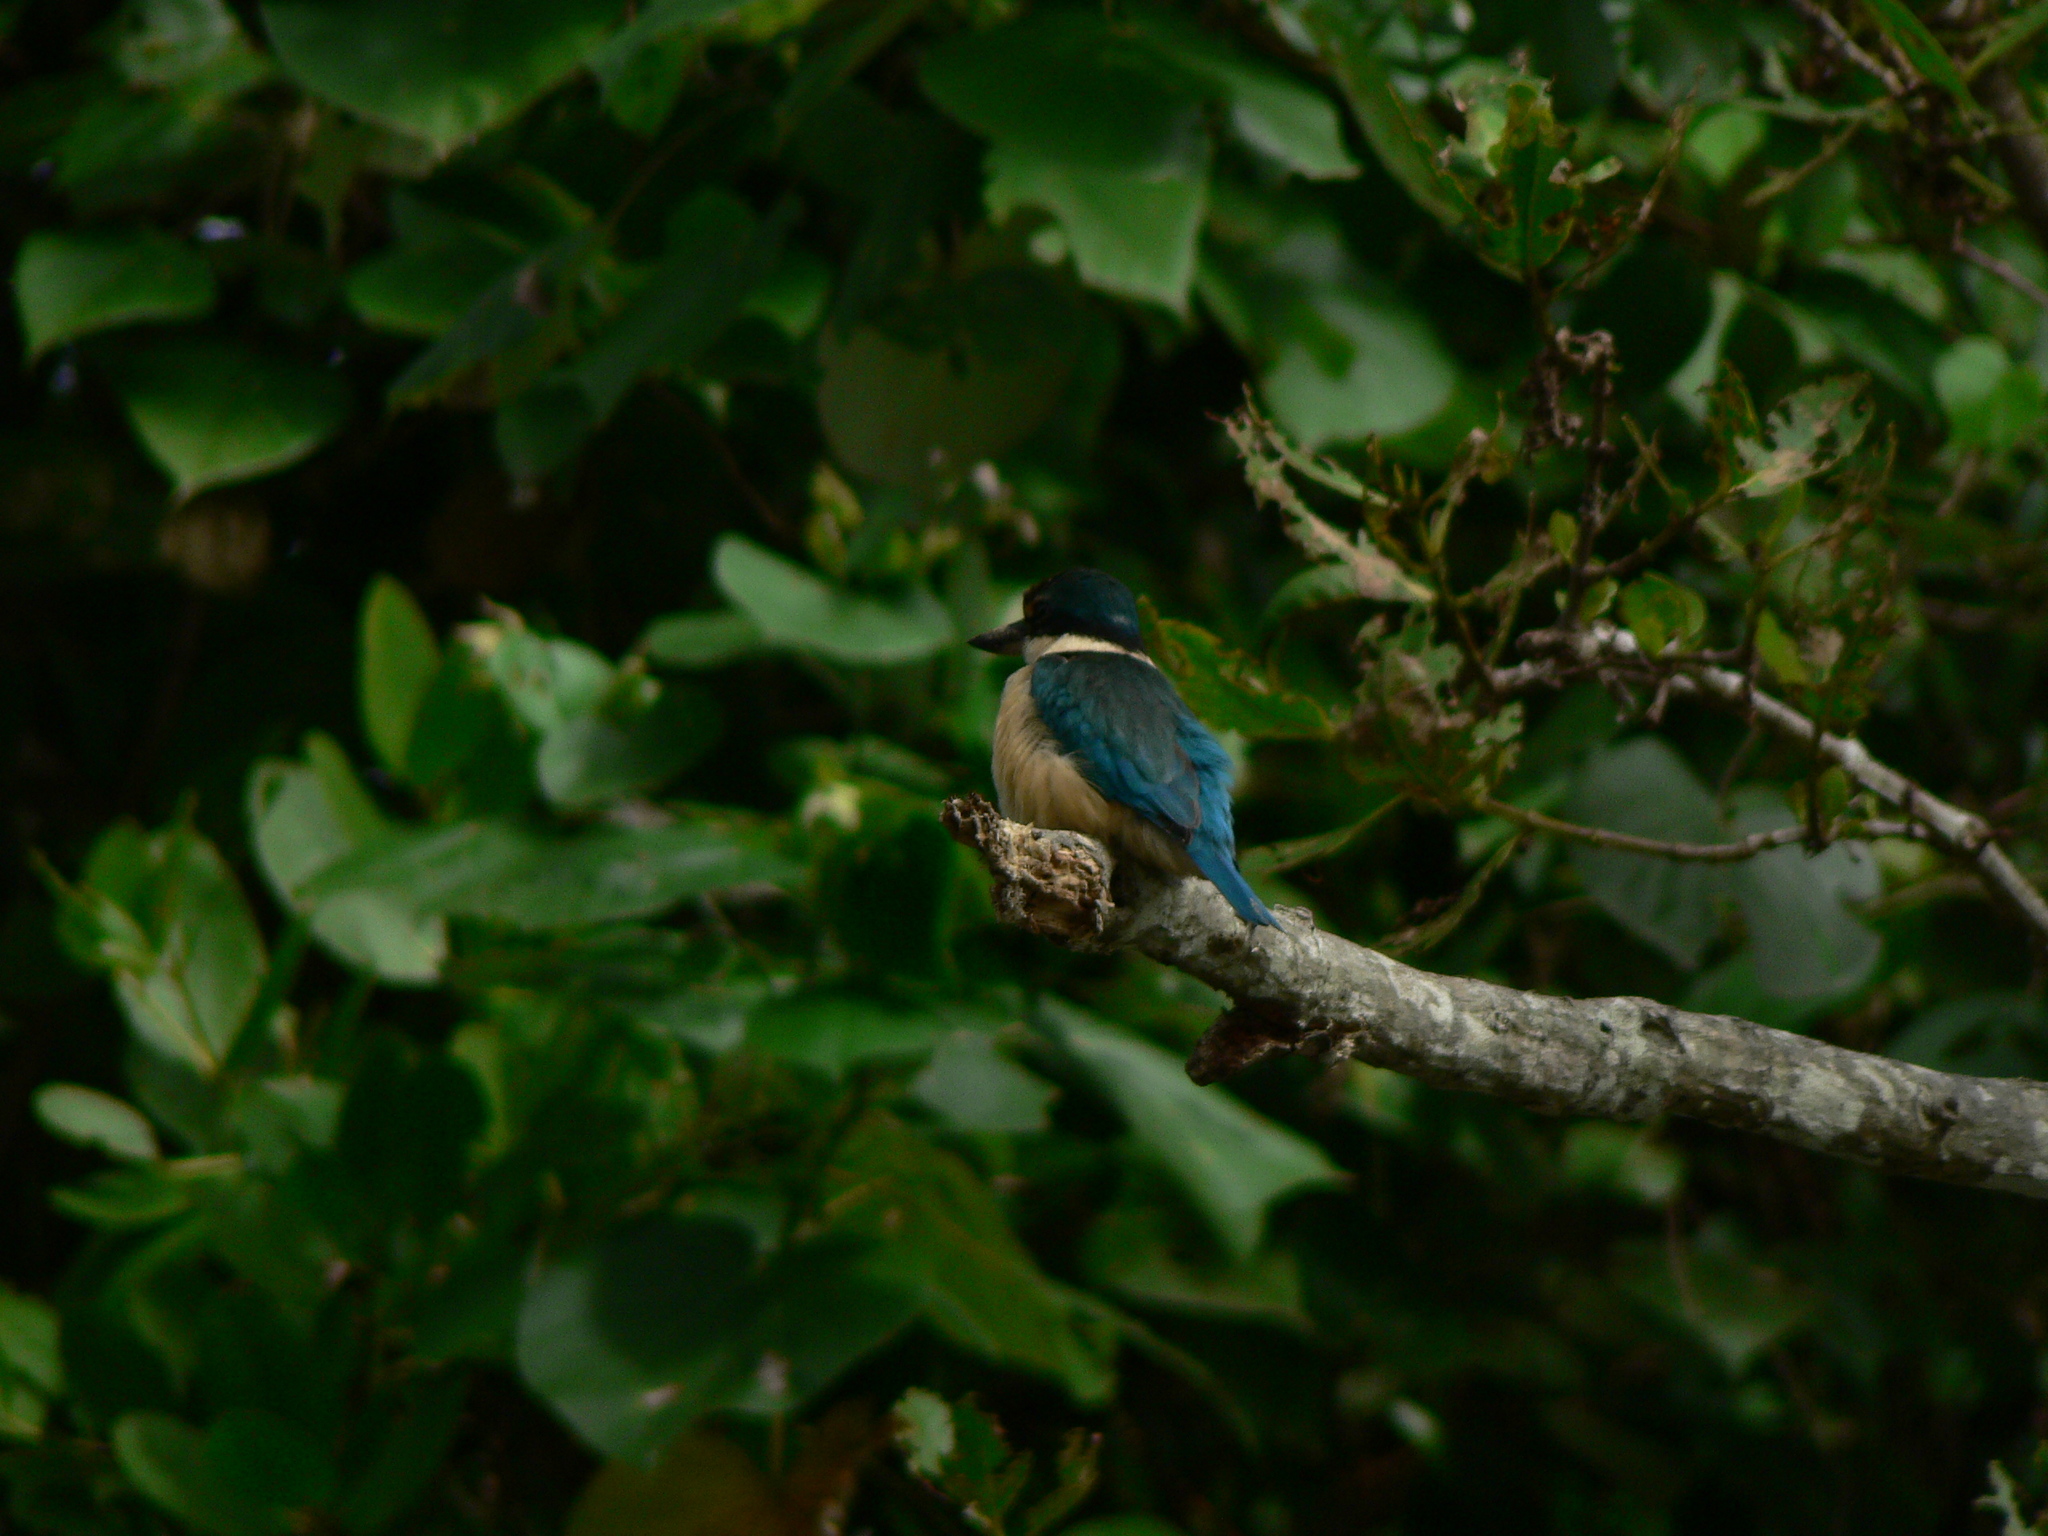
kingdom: Animalia
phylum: Chordata
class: Aves
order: Coraciiformes
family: Alcedinidae
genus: Todiramphus
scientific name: Todiramphus sanctus
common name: Sacred kingfisher
